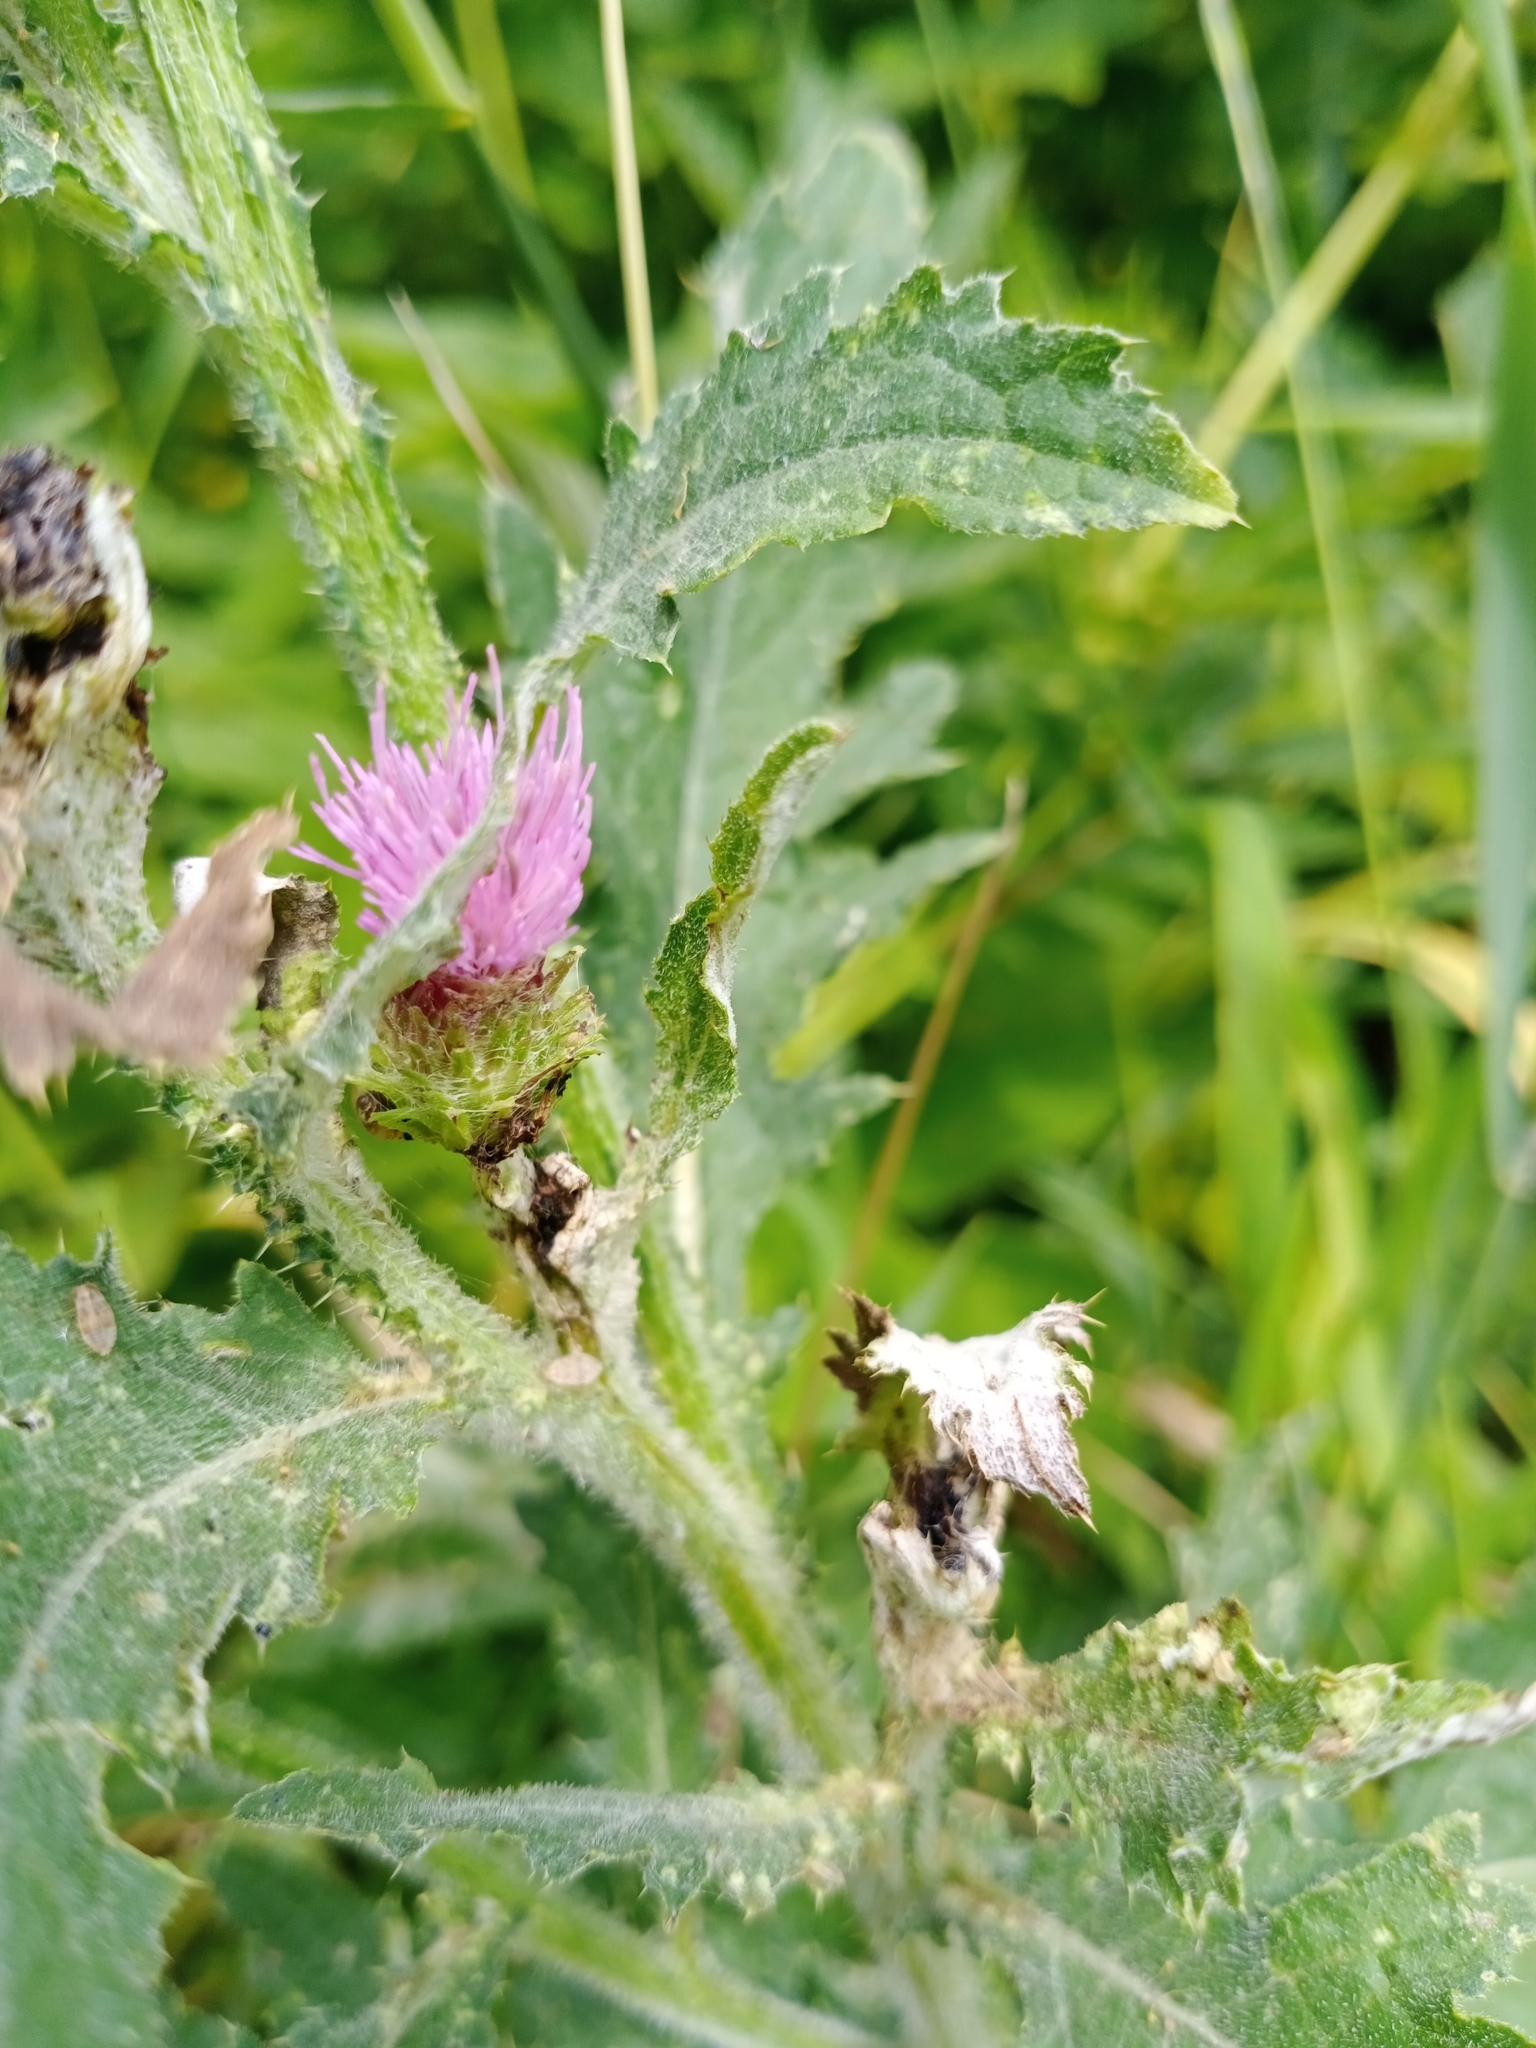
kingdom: Plantae
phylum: Tracheophyta
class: Magnoliopsida
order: Asterales
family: Asteraceae
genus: Carduus
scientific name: Carduus crispus
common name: Welted thistle
